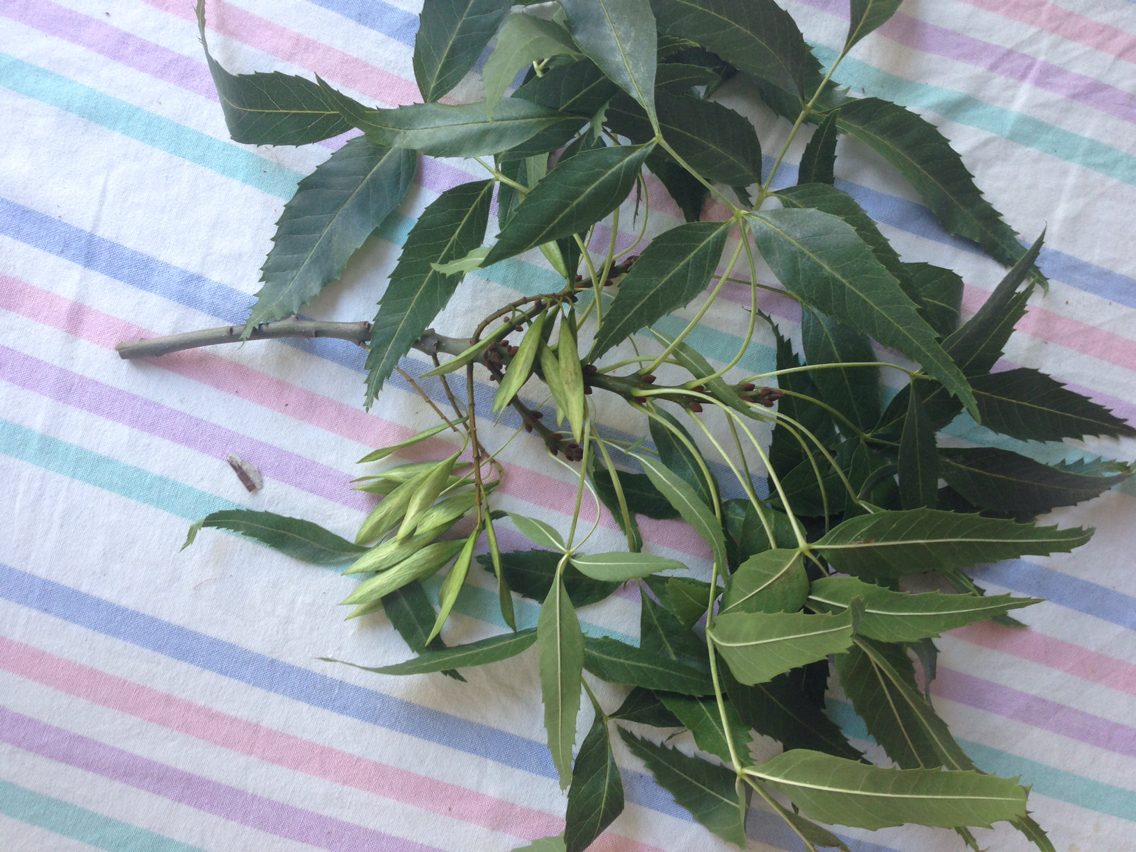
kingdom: Plantae
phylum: Tracheophyta
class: Magnoliopsida
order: Lamiales
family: Oleaceae
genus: Fraxinus
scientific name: Fraxinus angustifolia
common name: Narrow-leafed ash
